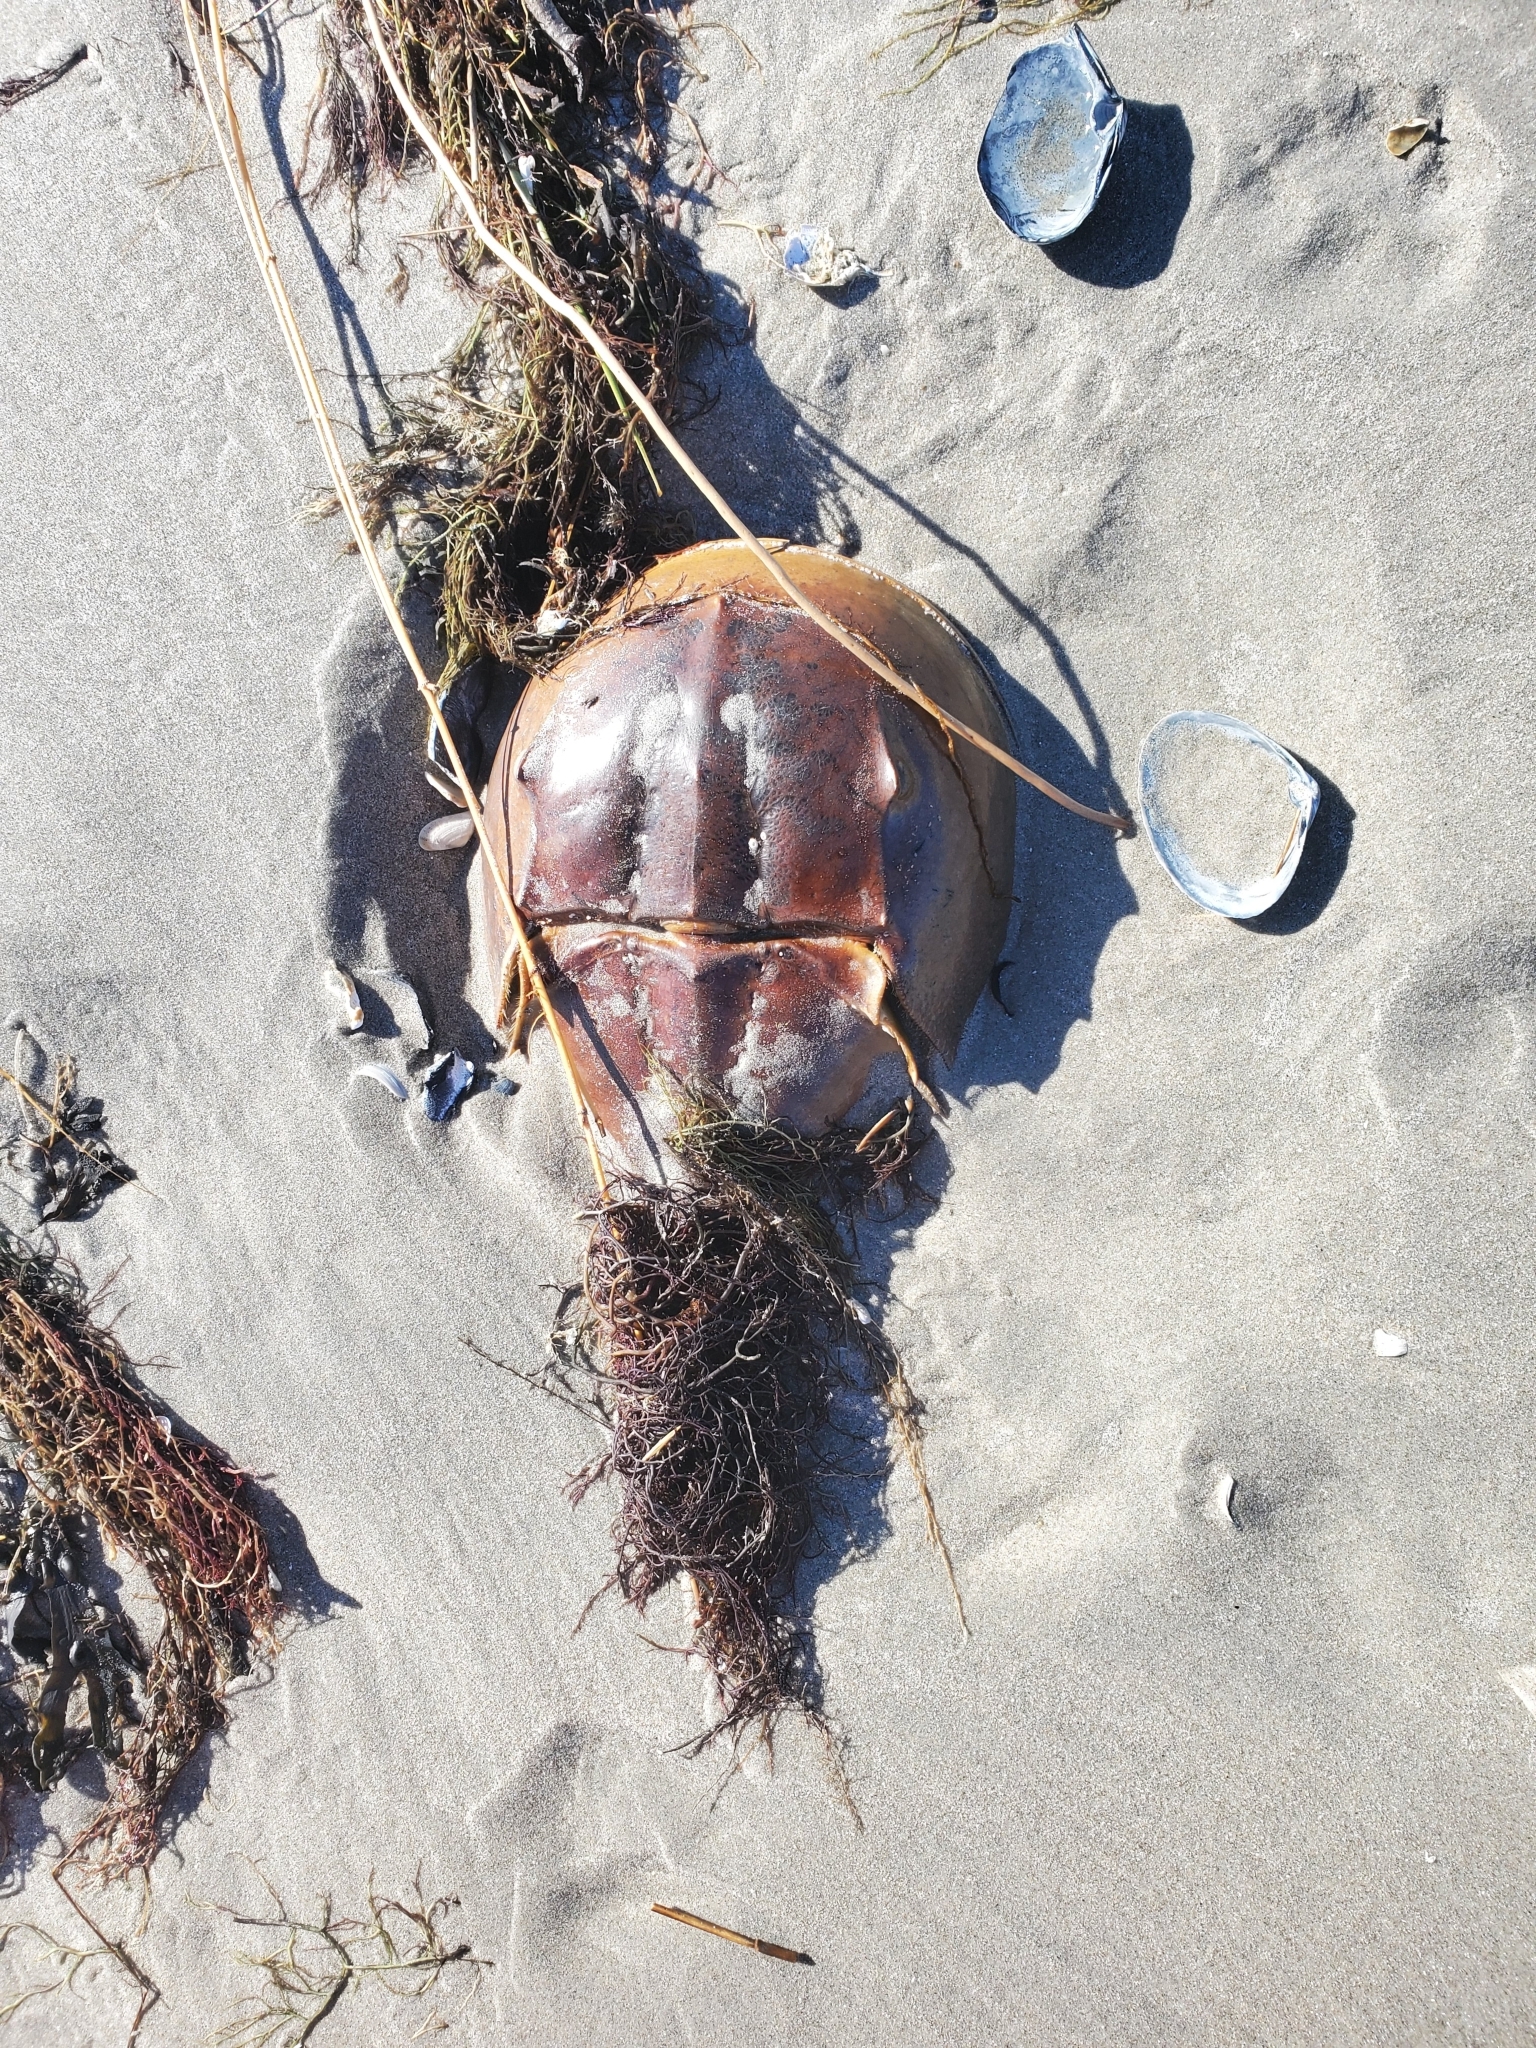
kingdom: Animalia
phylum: Arthropoda
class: Merostomata
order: Xiphosurida
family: Limulidae
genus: Limulus
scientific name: Limulus polyphemus
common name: Horseshoe crab
